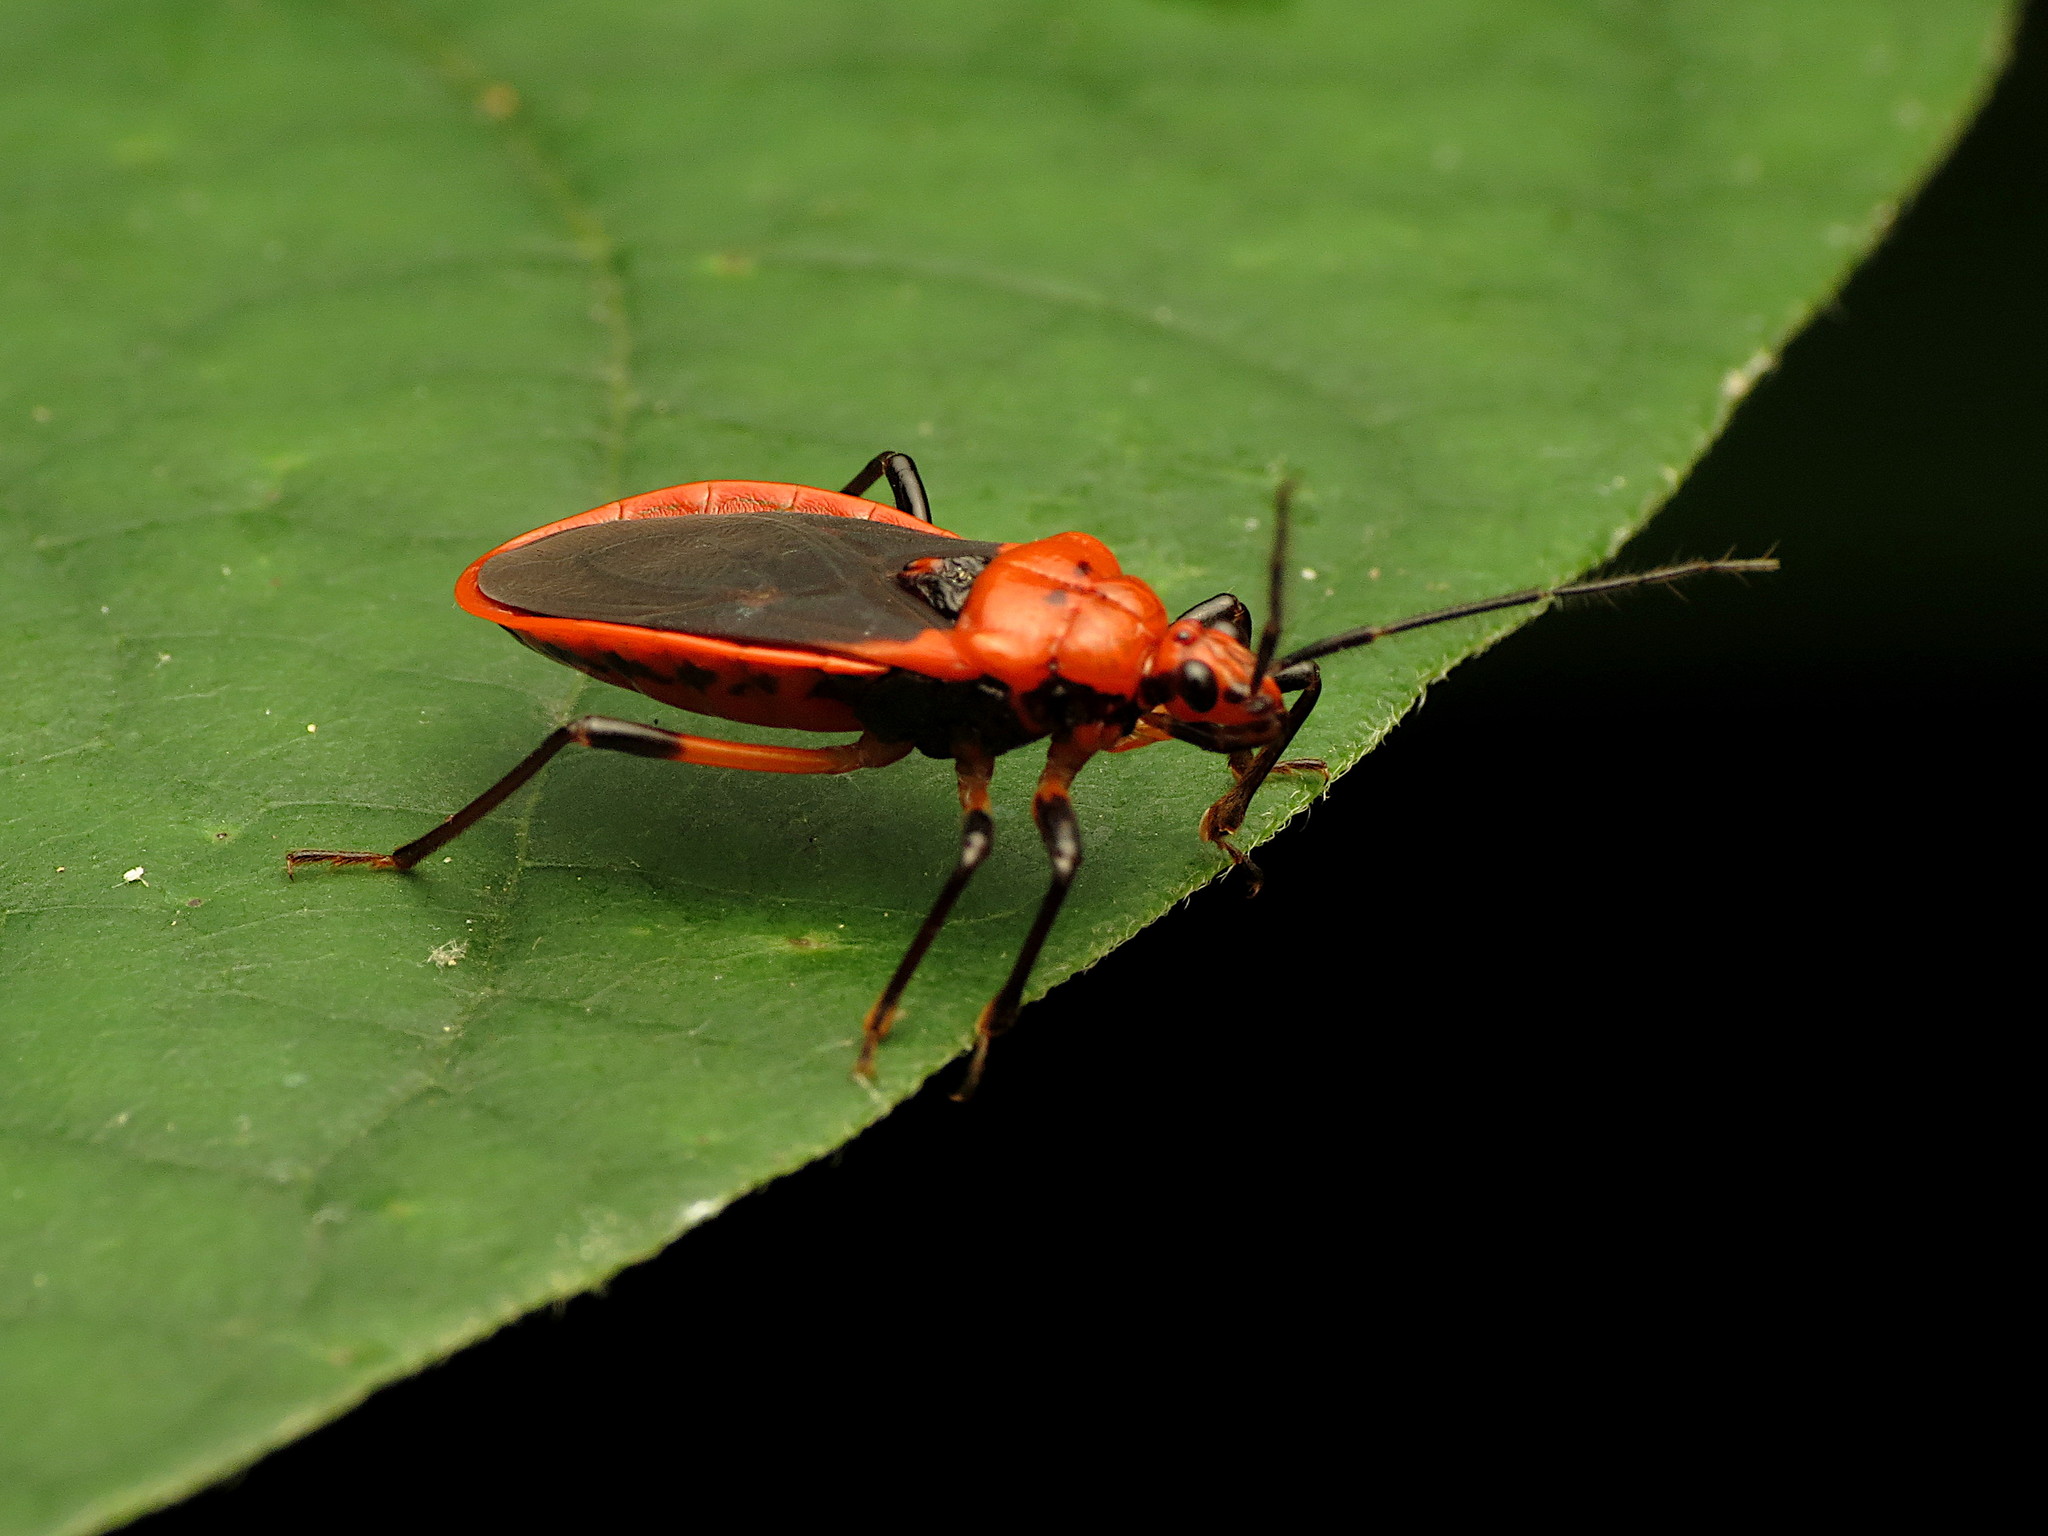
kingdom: Animalia
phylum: Arthropoda
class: Insecta
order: Hemiptera
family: Reduviidae
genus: Rhiginia
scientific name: Rhiginia cruciata
